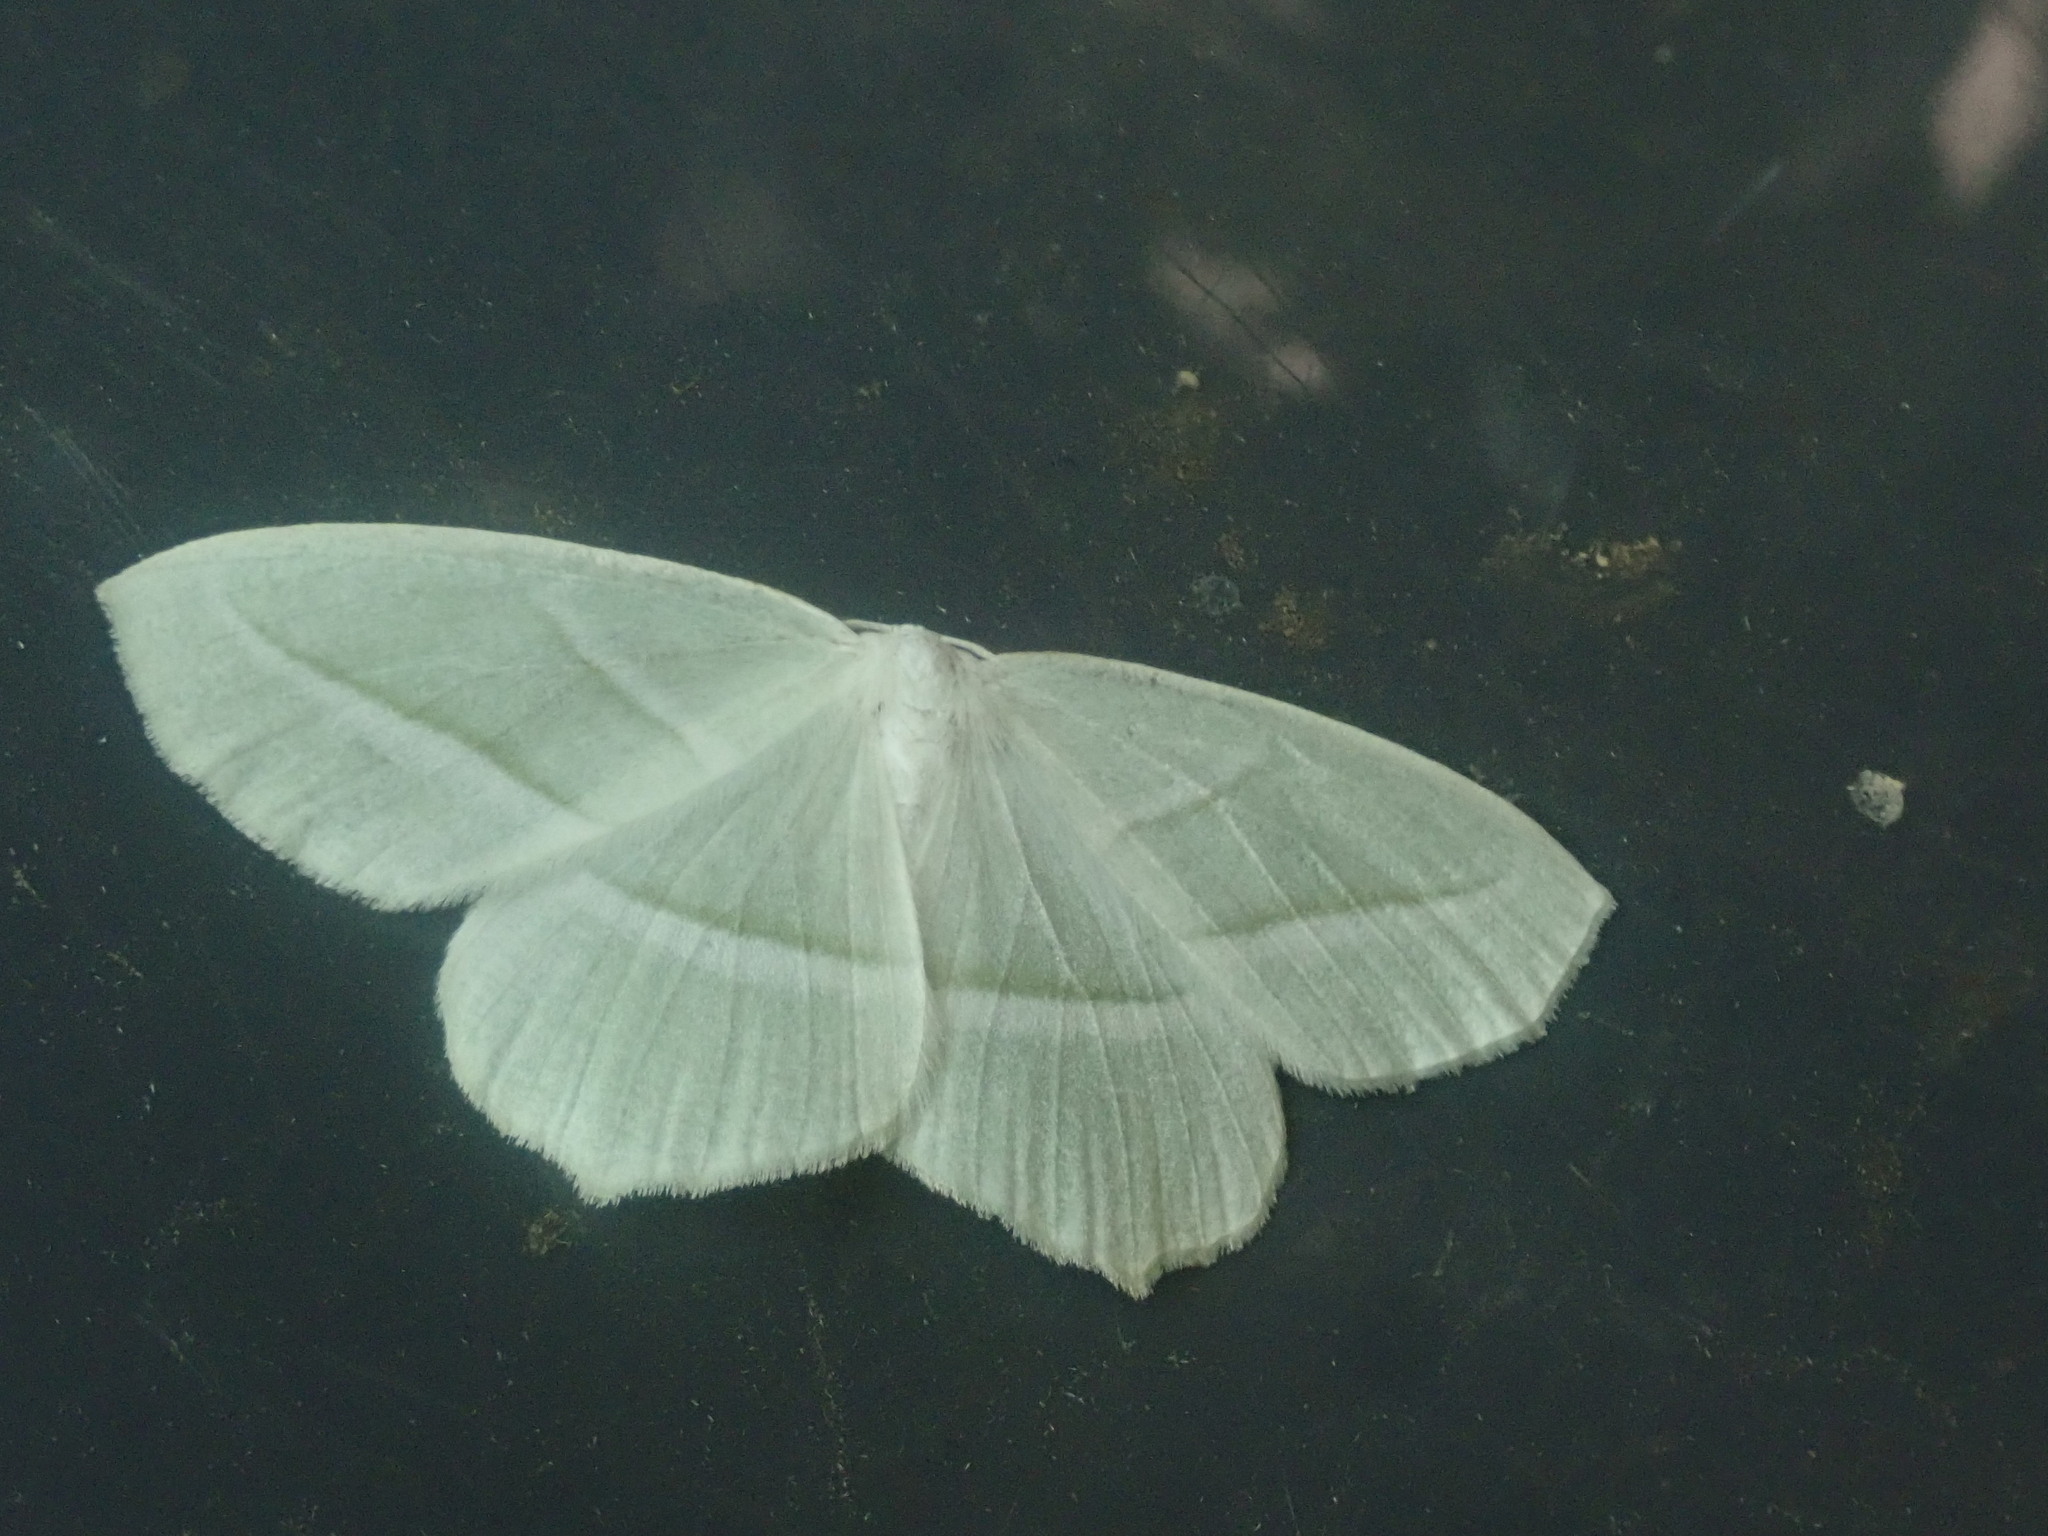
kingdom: Animalia
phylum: Arthropoda
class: Insecta
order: Lepidoptera
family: Geometridae
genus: Campaea
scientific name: Campaea perlata
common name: Fringed looper
